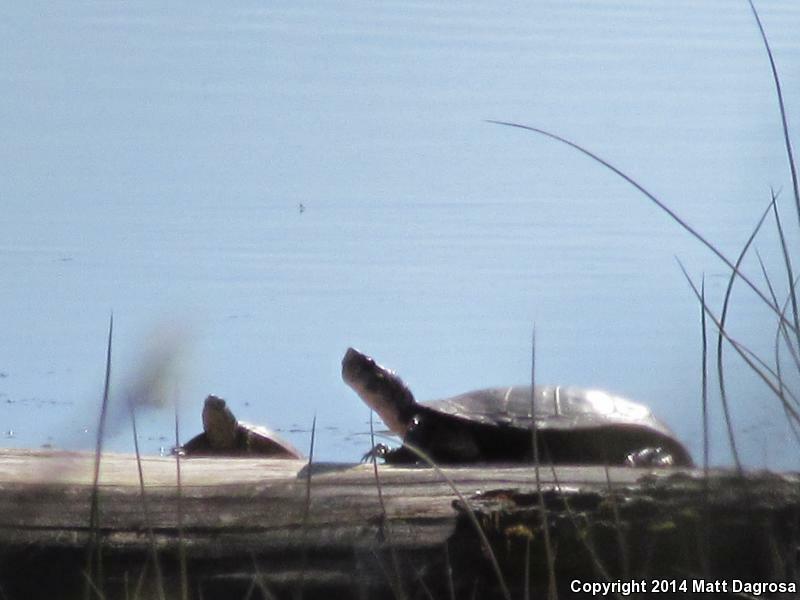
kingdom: Animalia
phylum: Chordata
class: Testudines
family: Emydidae
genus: Actinemys
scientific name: Actinemys marmorata
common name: Western pond turtle
